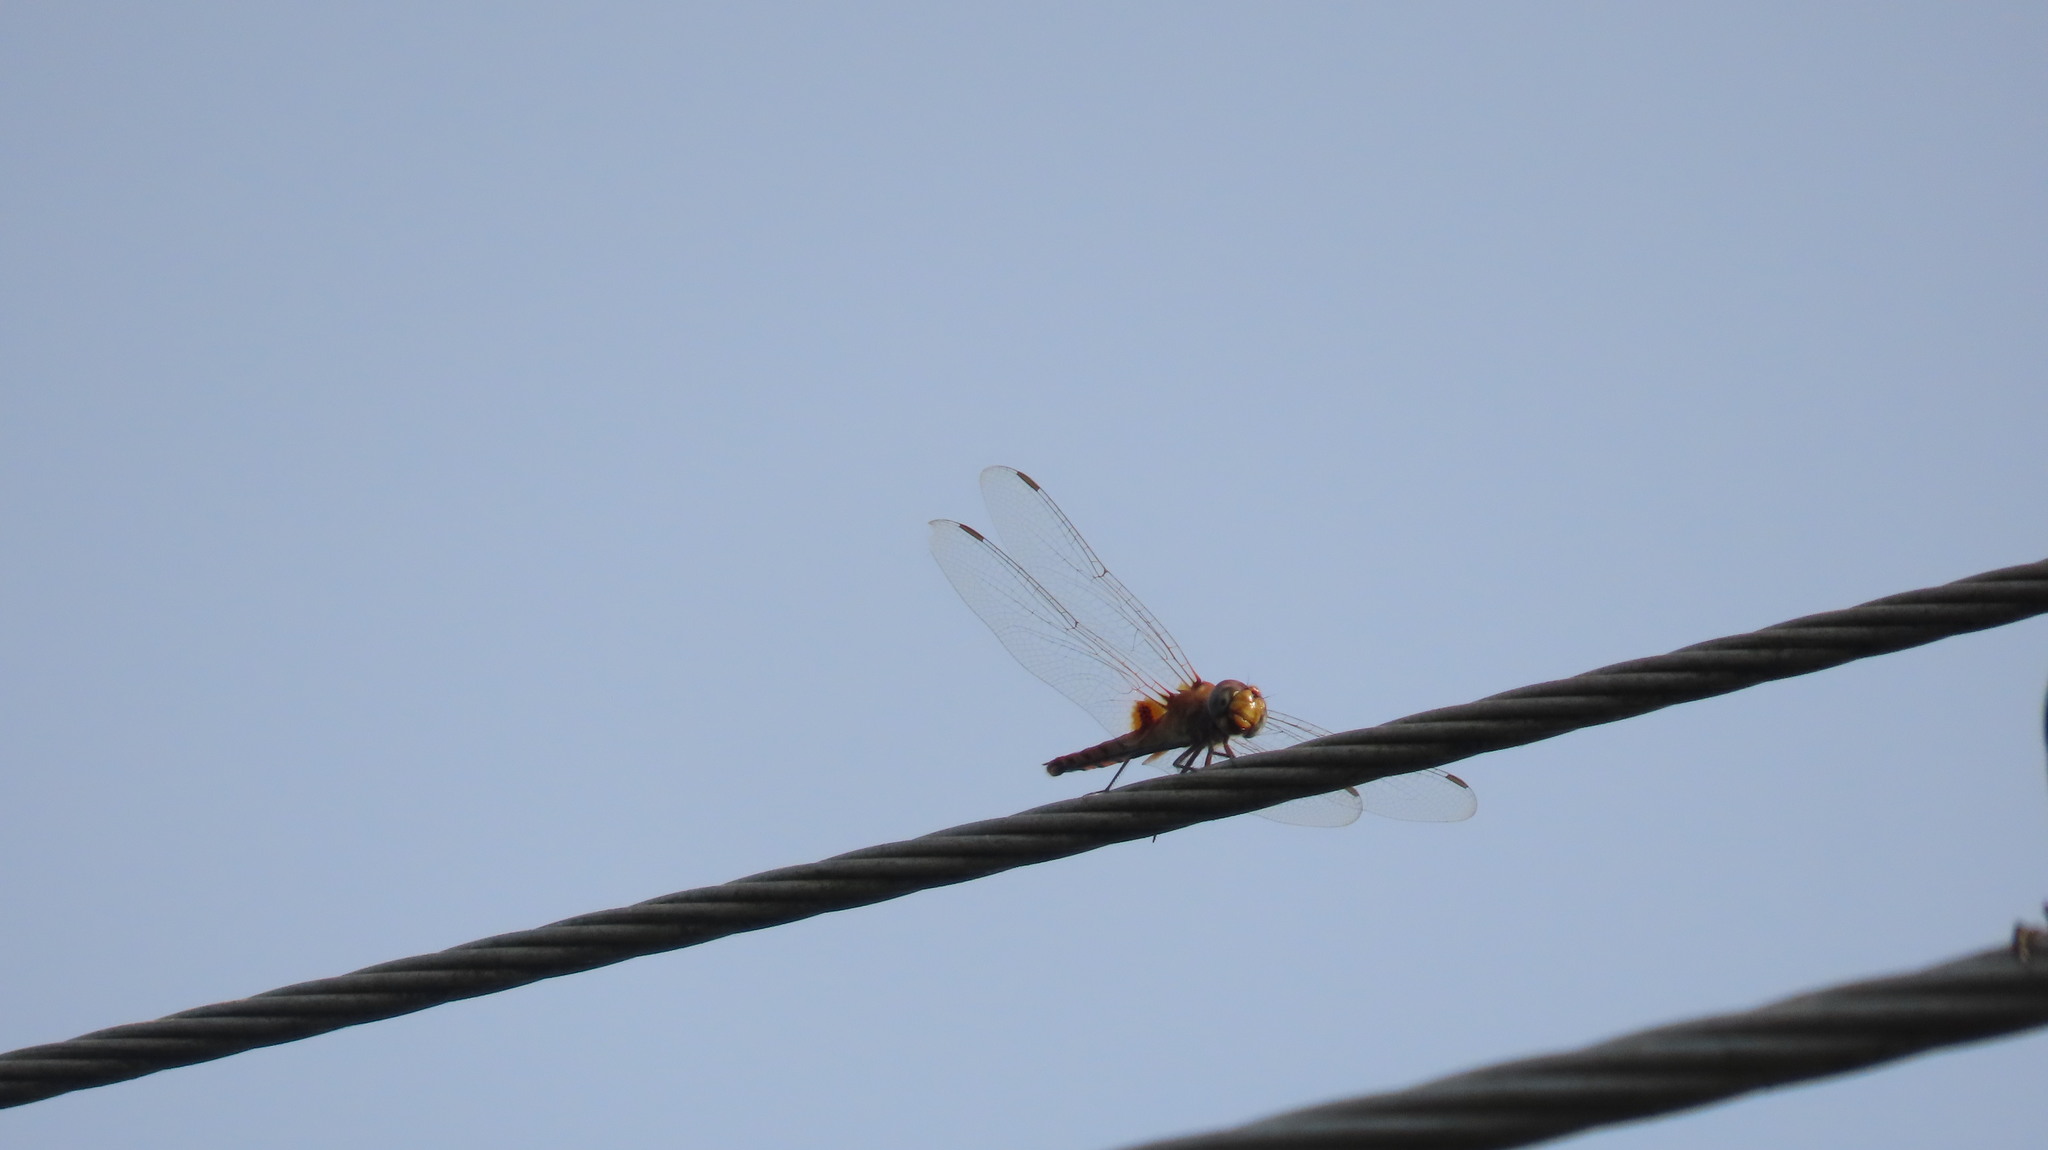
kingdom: Animalia
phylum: Arthropoda
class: Insecta
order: Odonata
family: Libellulidae
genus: Urothemis
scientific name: Urothemis signata
